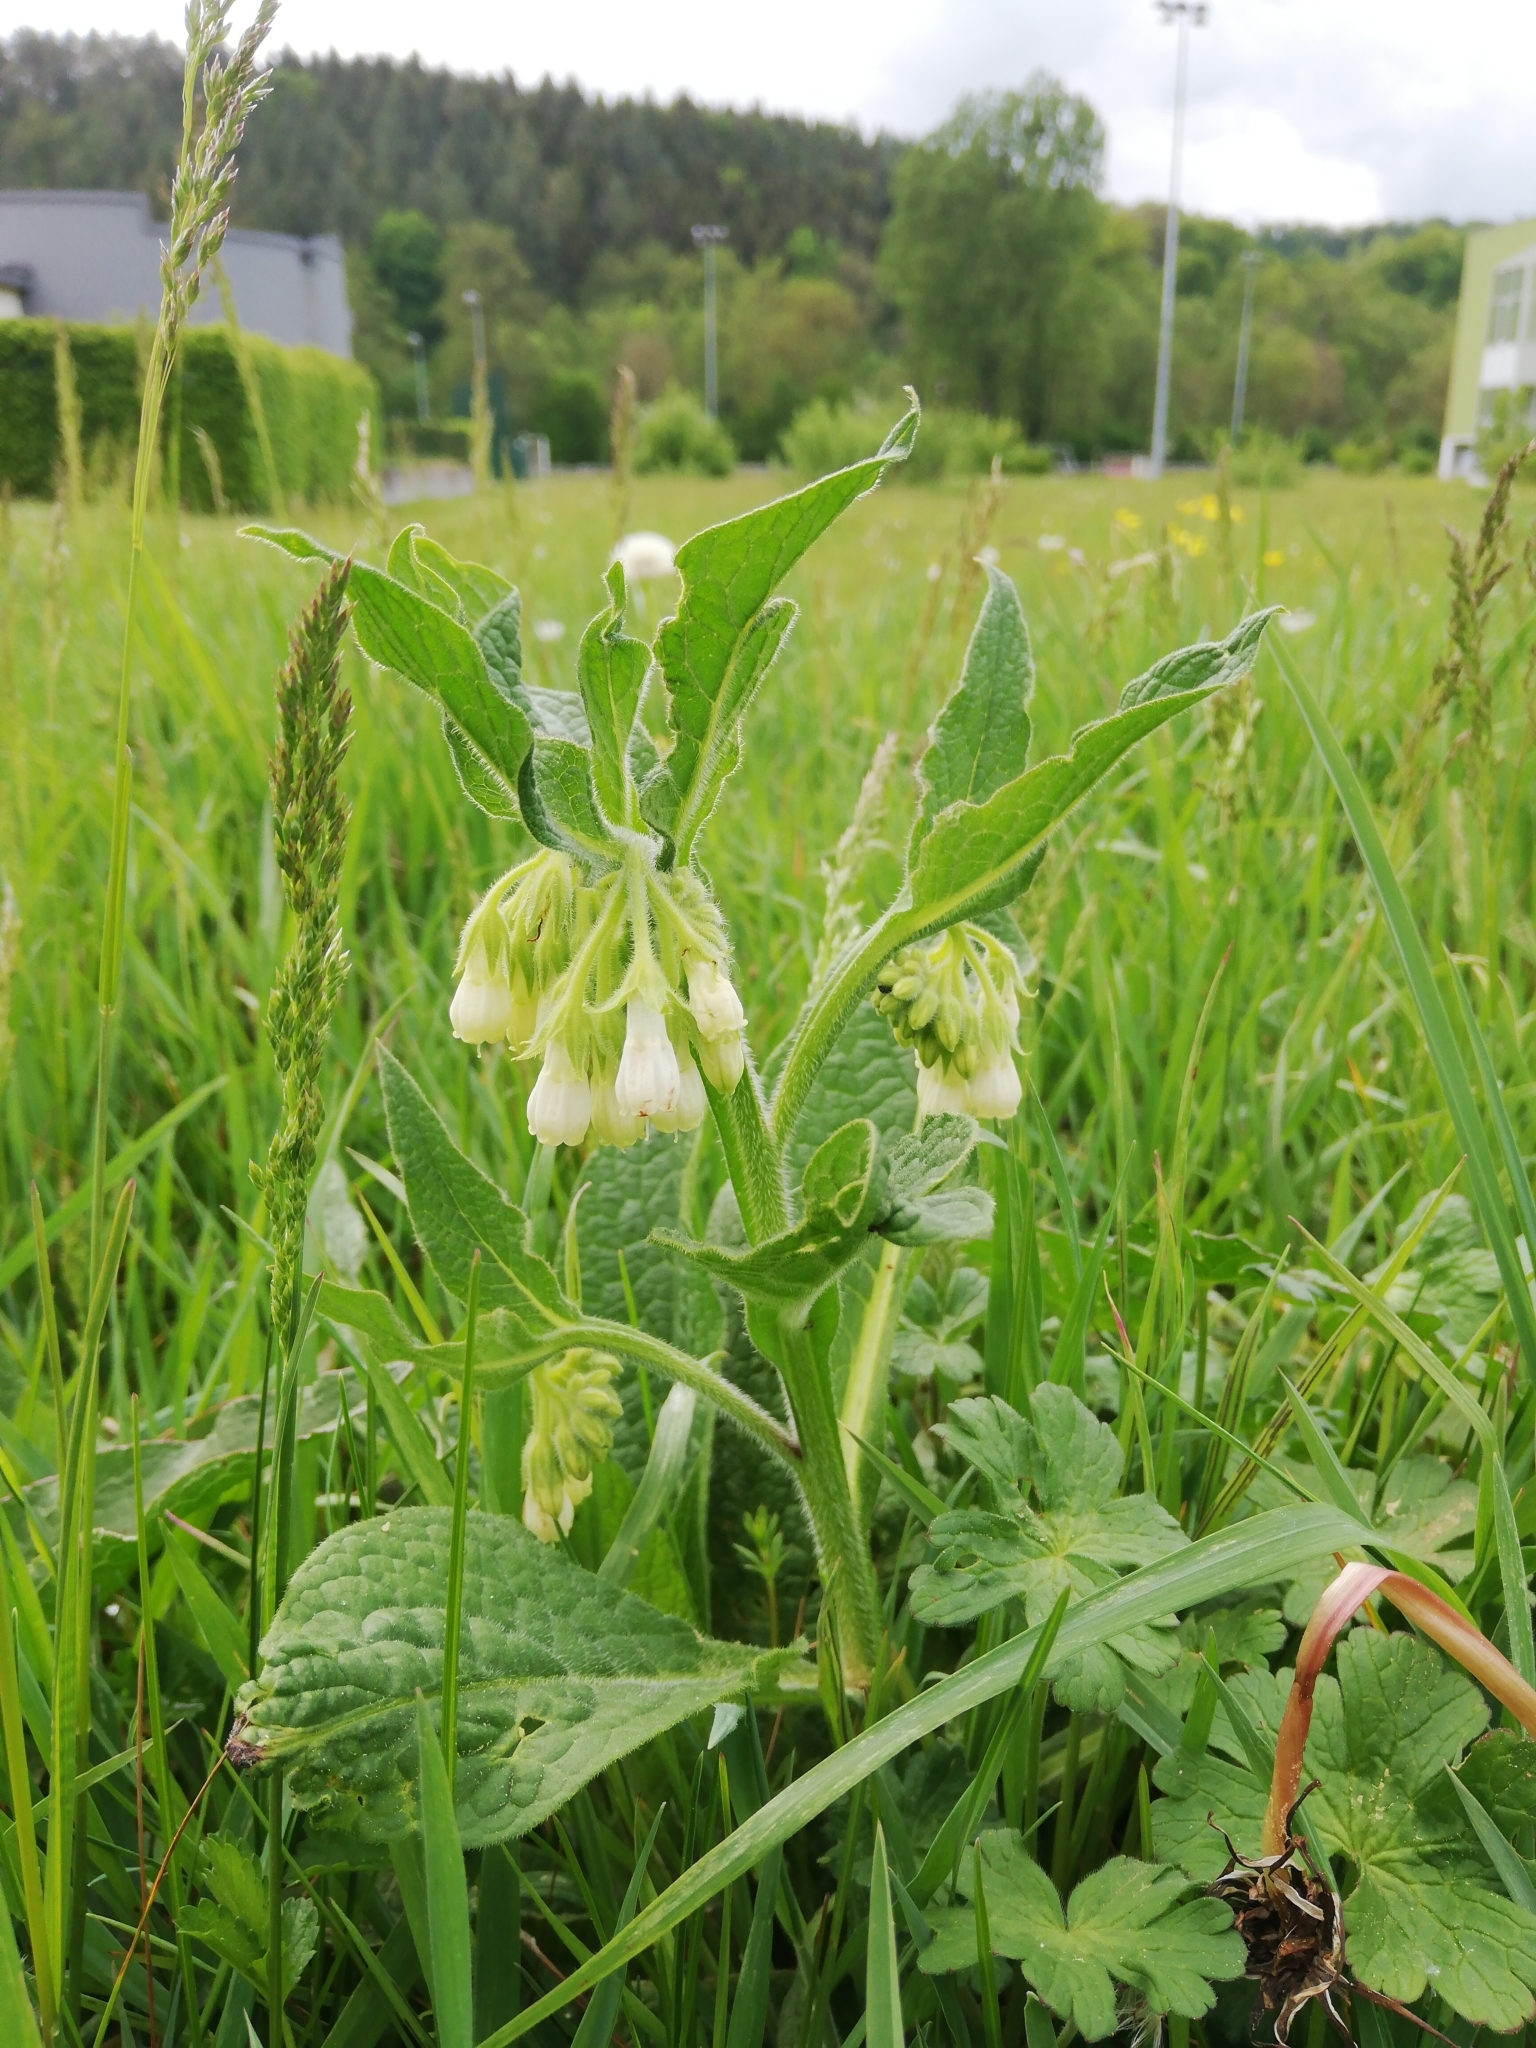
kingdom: Plantae
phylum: Tracheophyta
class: Magnoliopsida
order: Boraginales
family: Boraginaceae
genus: Symphytum
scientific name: Symphytum officinale
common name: Common comfrey
